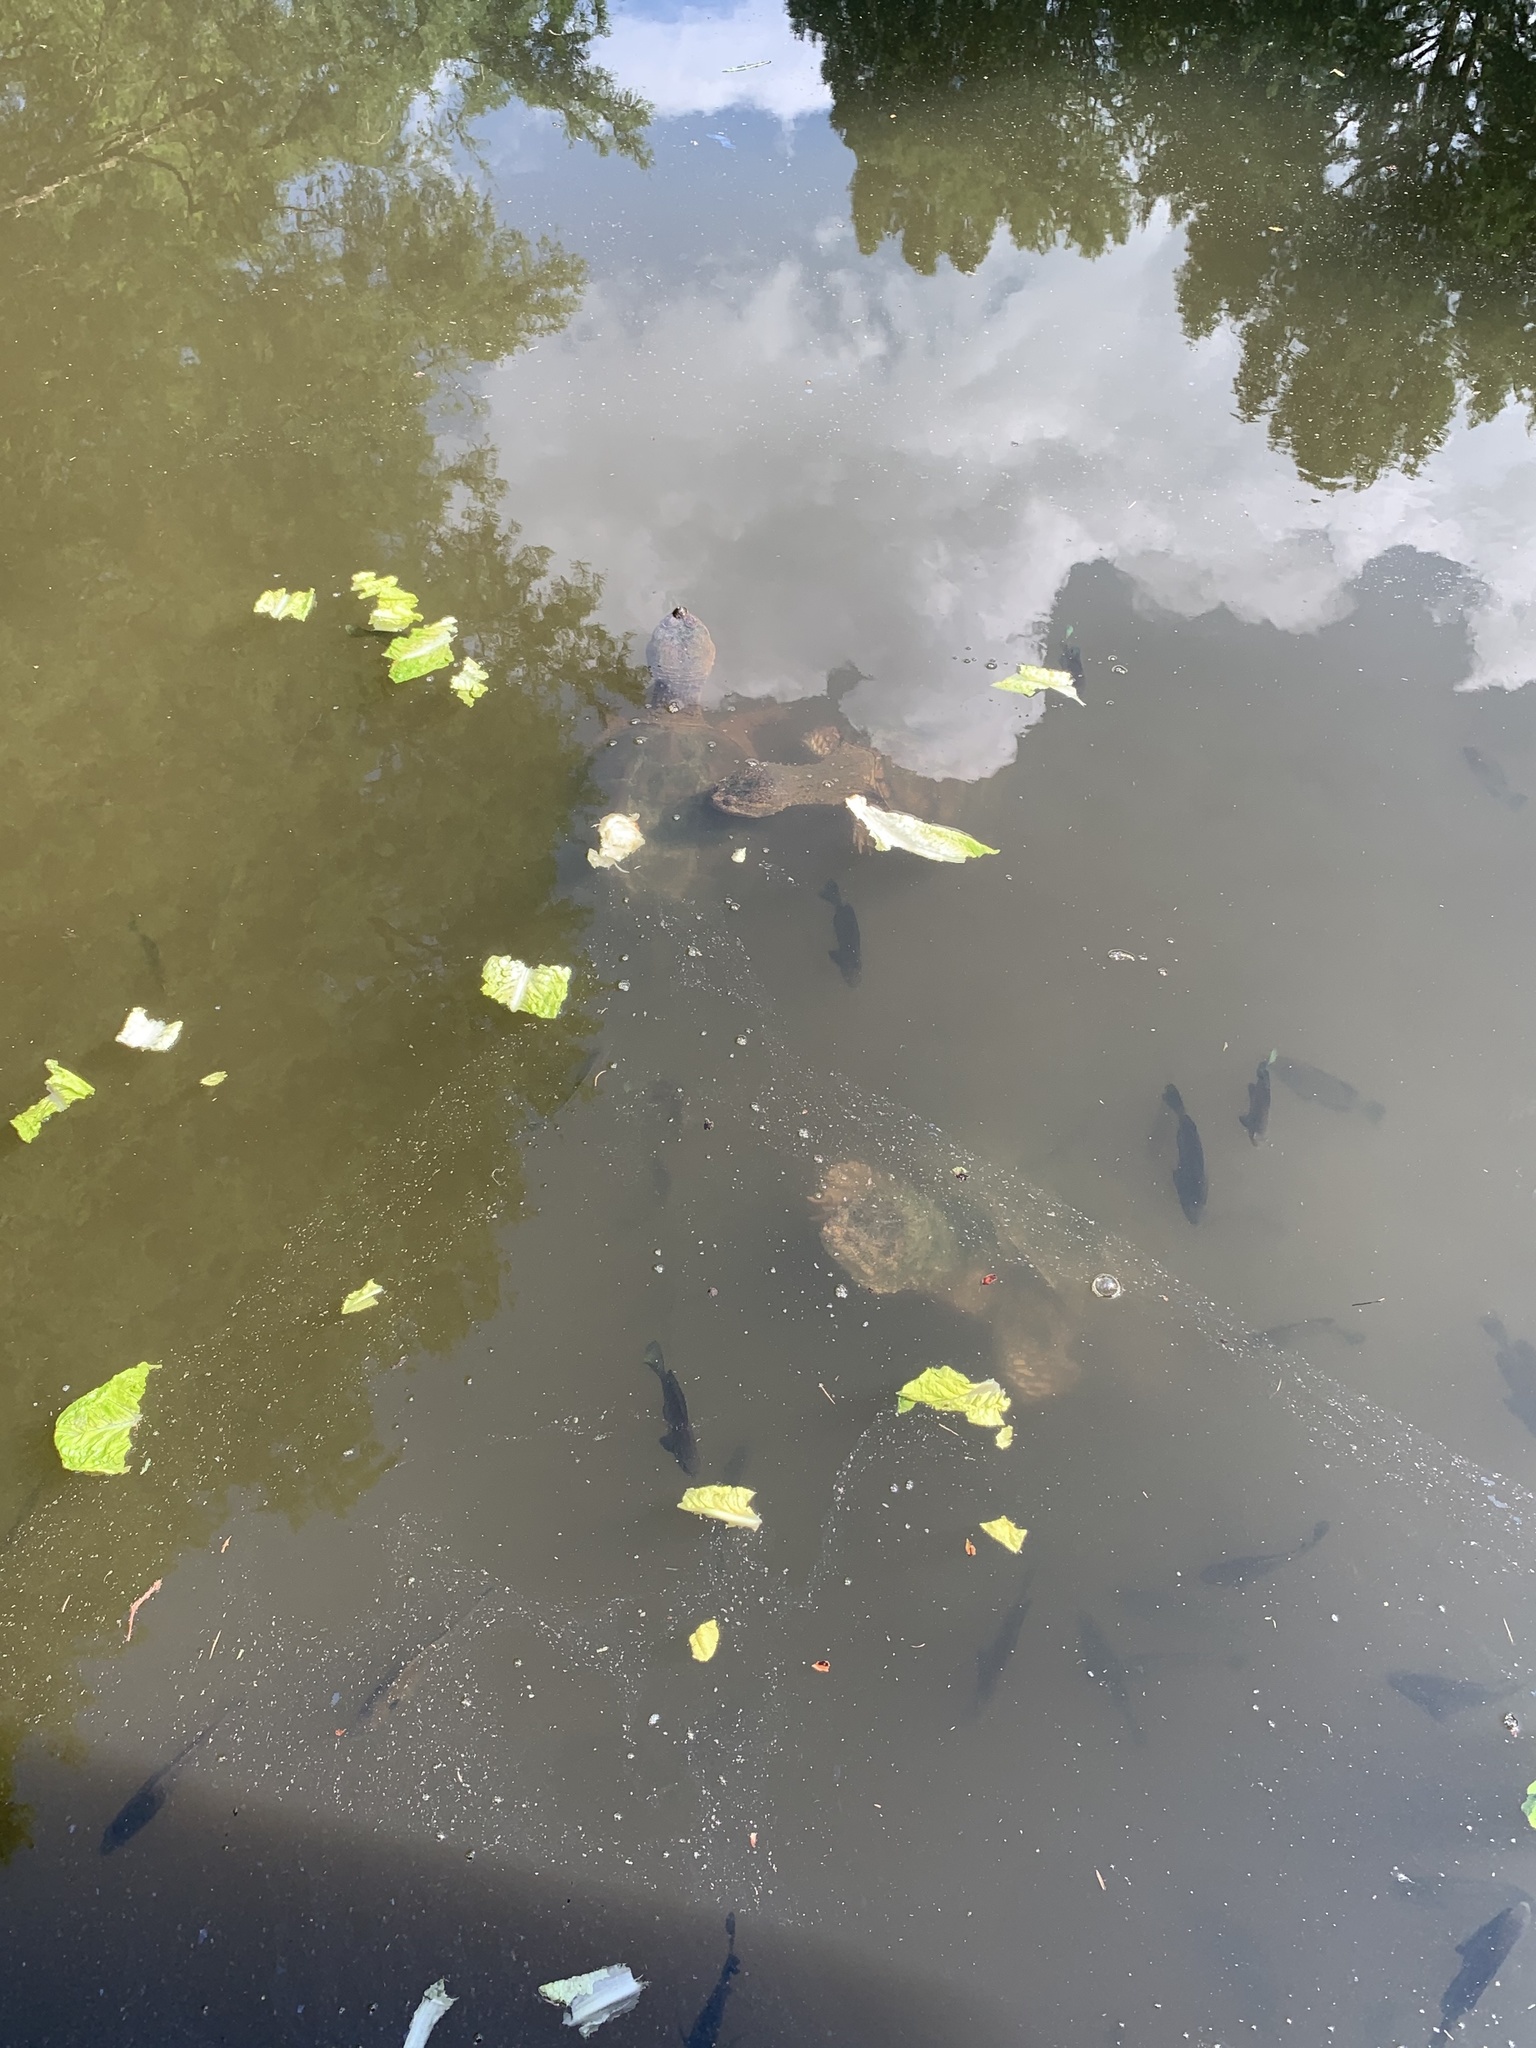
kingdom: Animalia
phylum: Chordata
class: Testudines
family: Chelydridae
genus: Chelydra
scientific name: Chelydra serpentina
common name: Common snapping turtle
